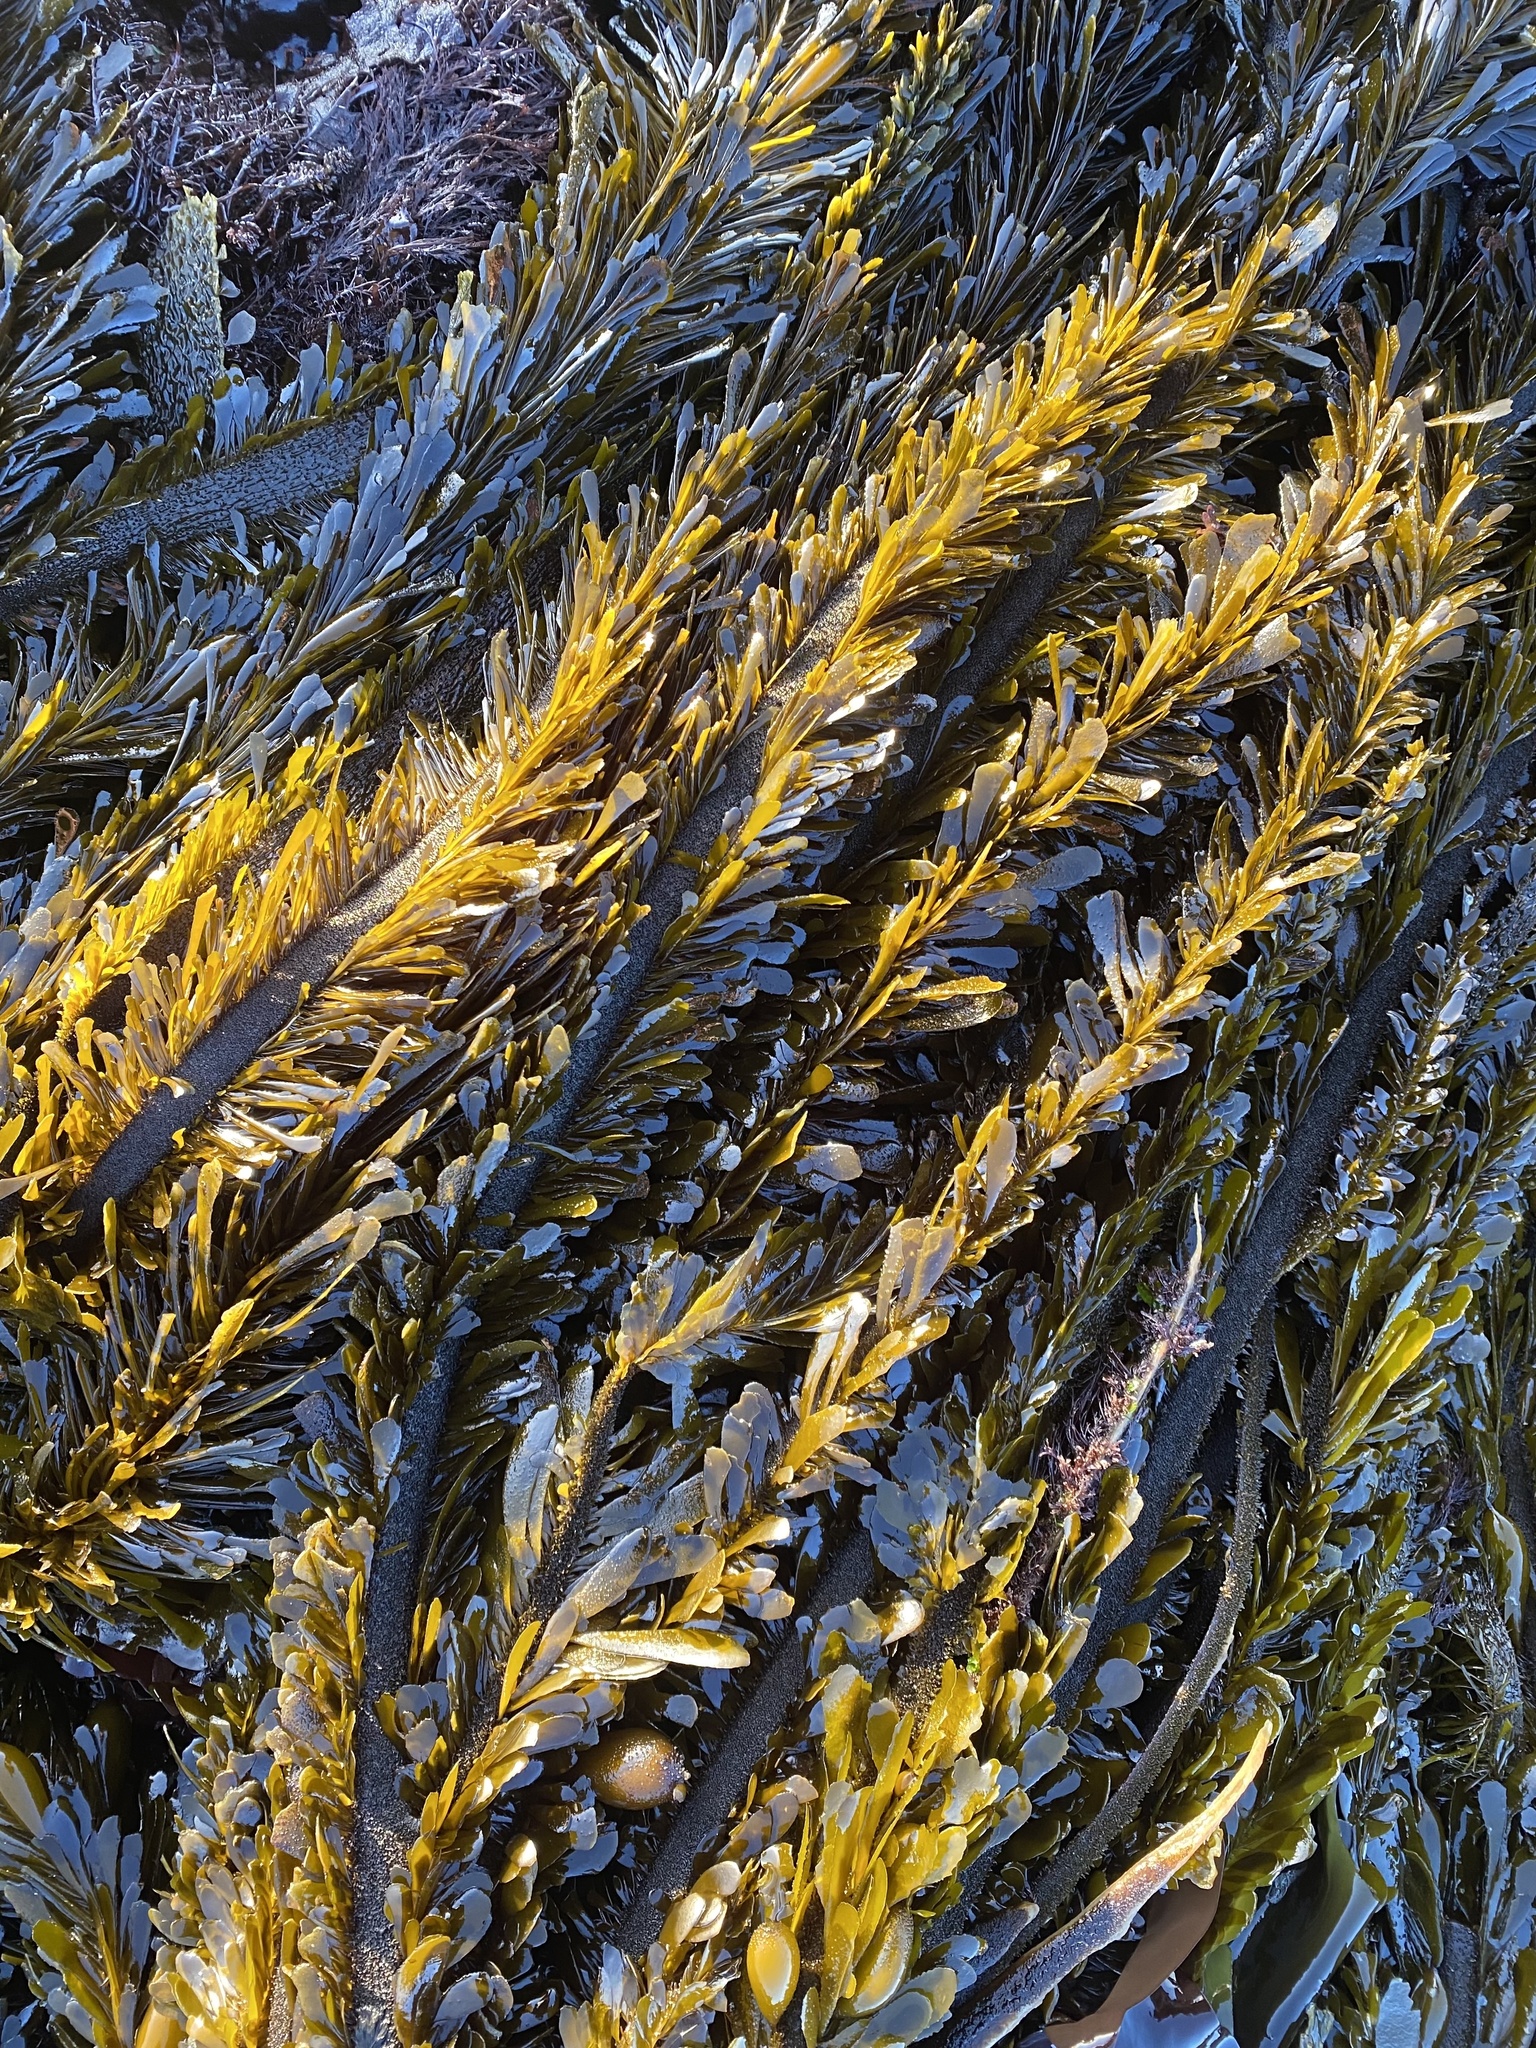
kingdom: Chromista
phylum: Ochrophyta
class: Phaeophyceae
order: Laminariales
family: Lessoniaceae
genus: Egregia
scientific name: Egregia menziesii
